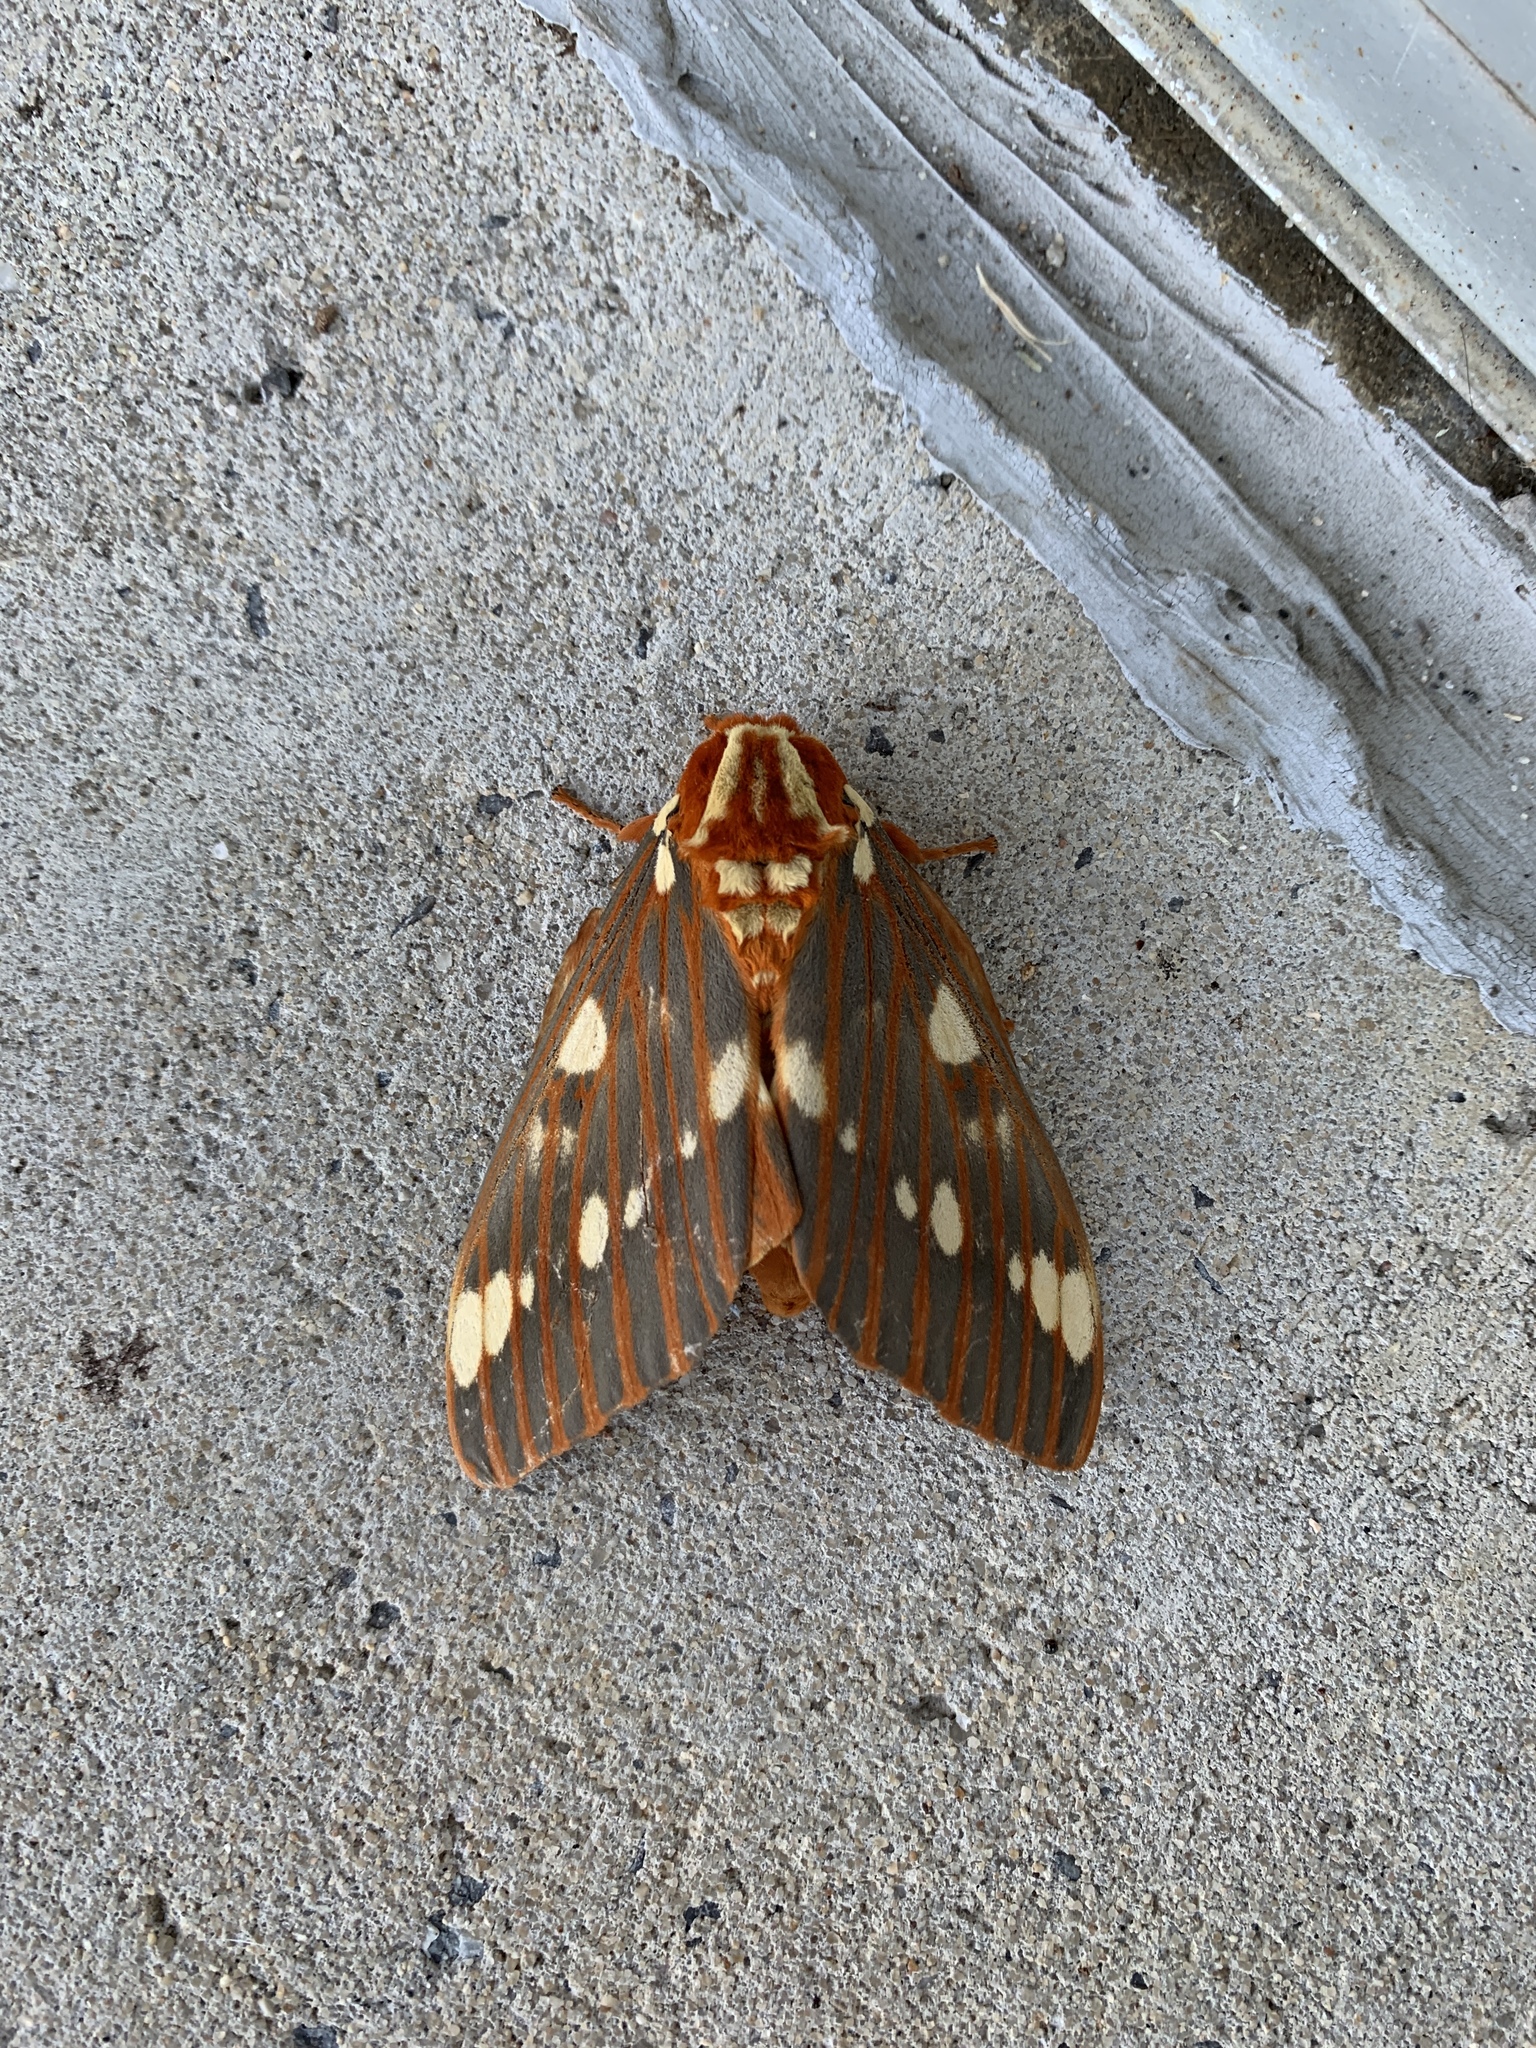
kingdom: Animalia
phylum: Arthropoda
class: Insecta
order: Lepidoptera
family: Saturniidae
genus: Citheronia
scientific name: Citheronia regalis
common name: Hickory horned devil
